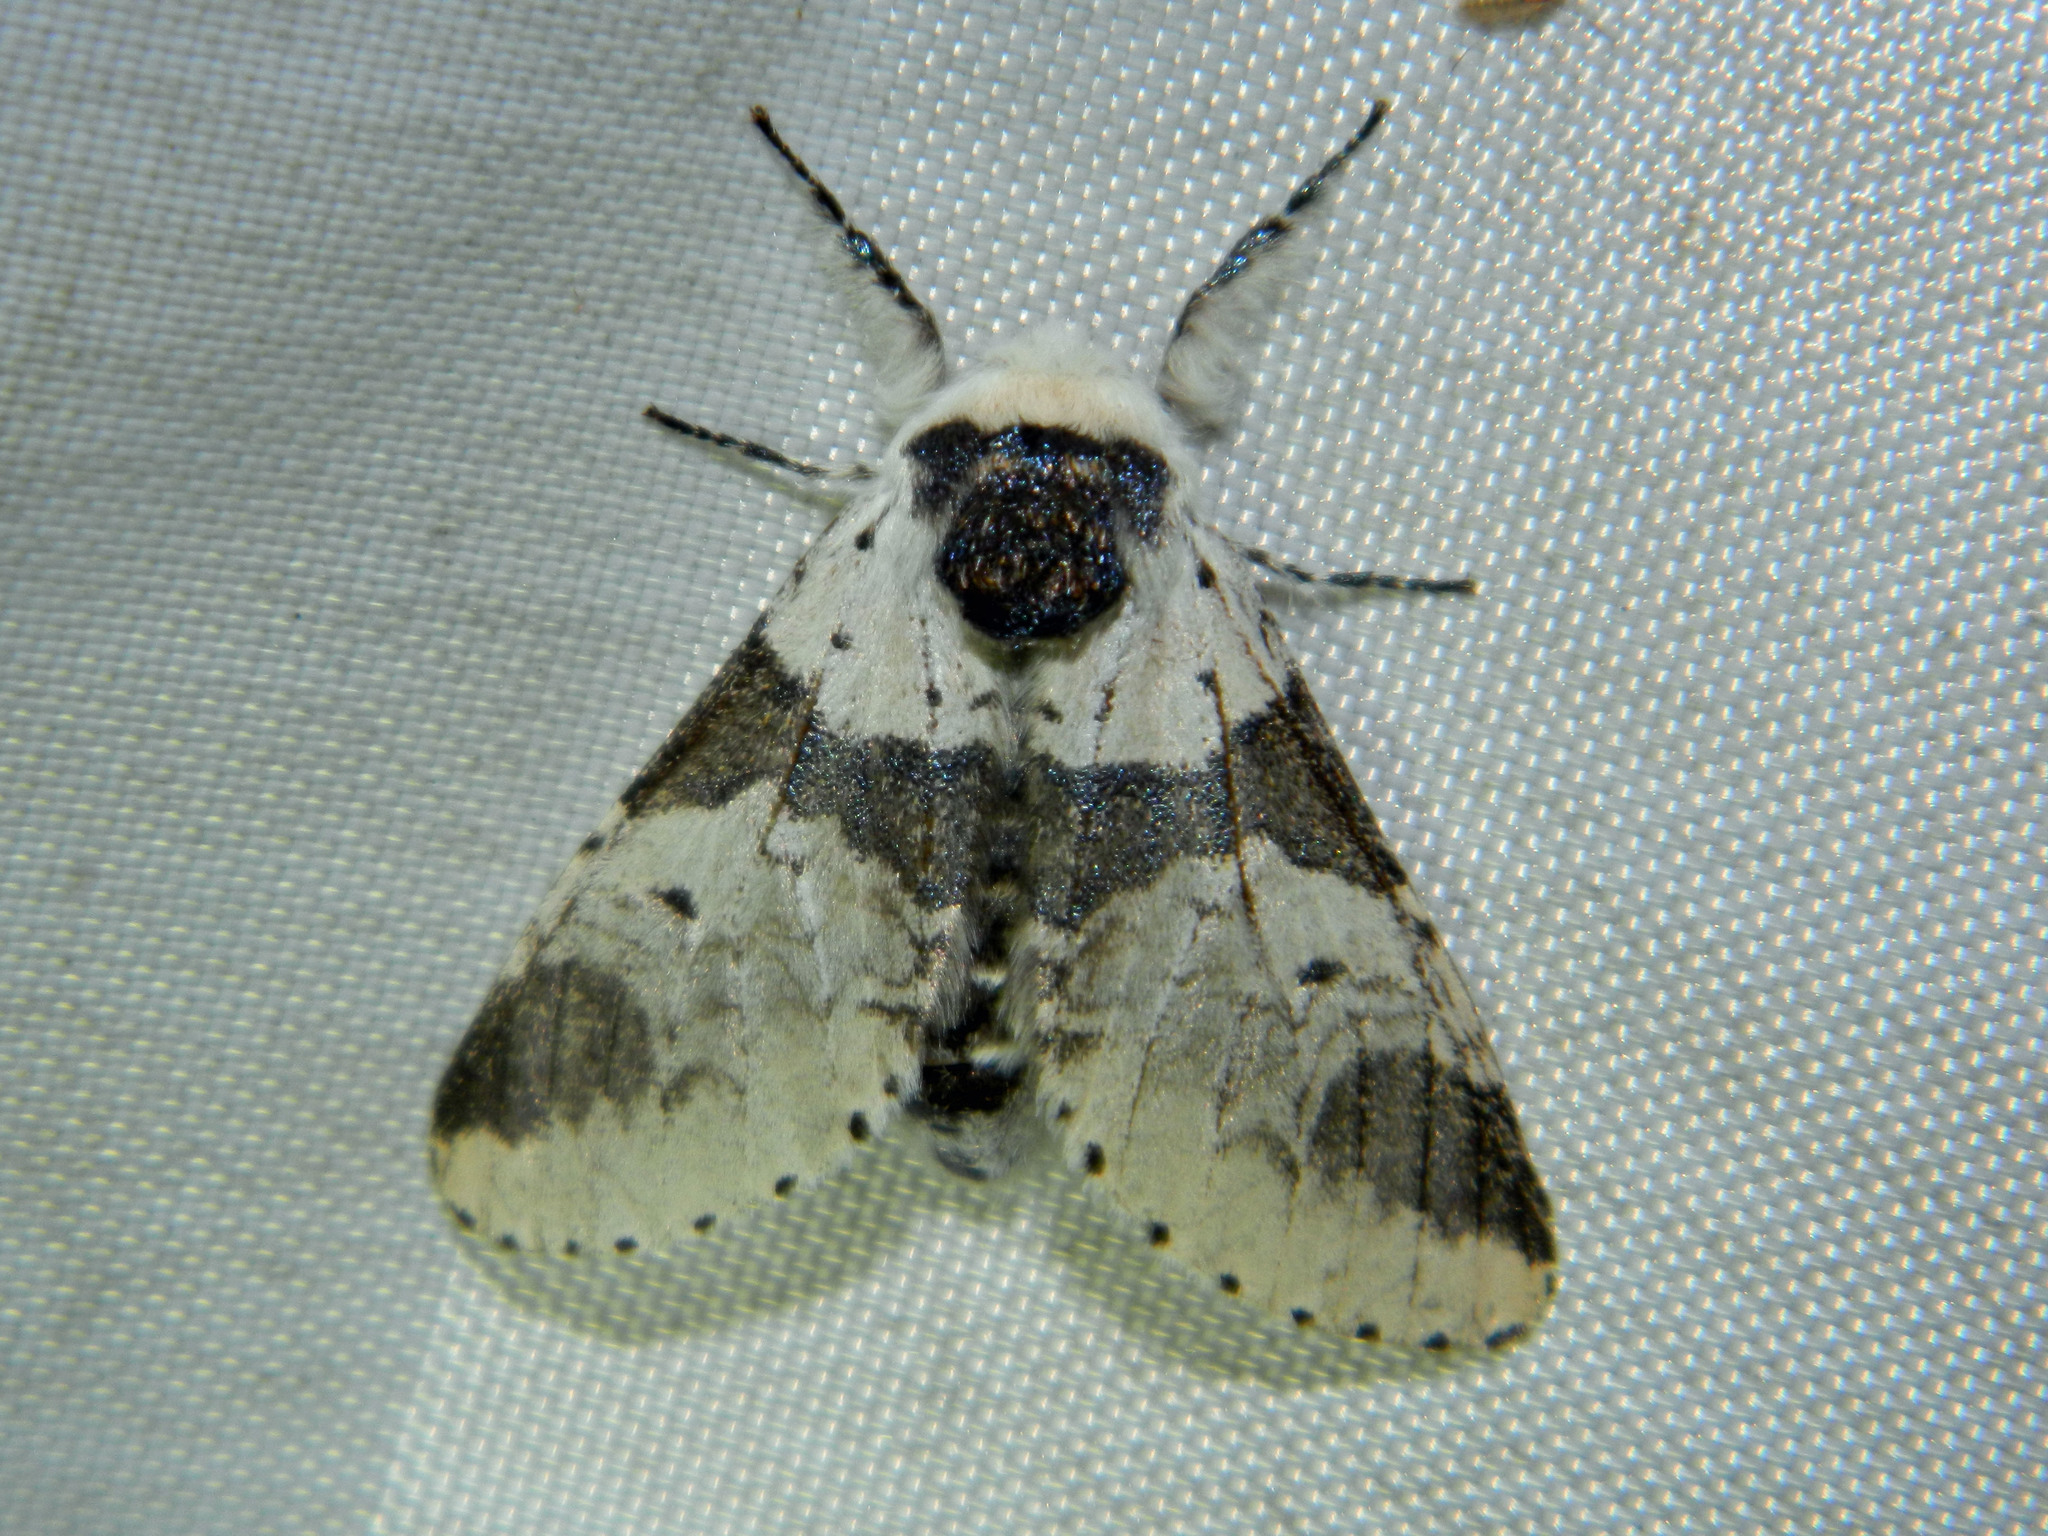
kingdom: Animalia
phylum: Arthropoda
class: Insecta
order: Lepidoptera
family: Notodontidae
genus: Furcula
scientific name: Furcula modesta
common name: Modest furcula moth
